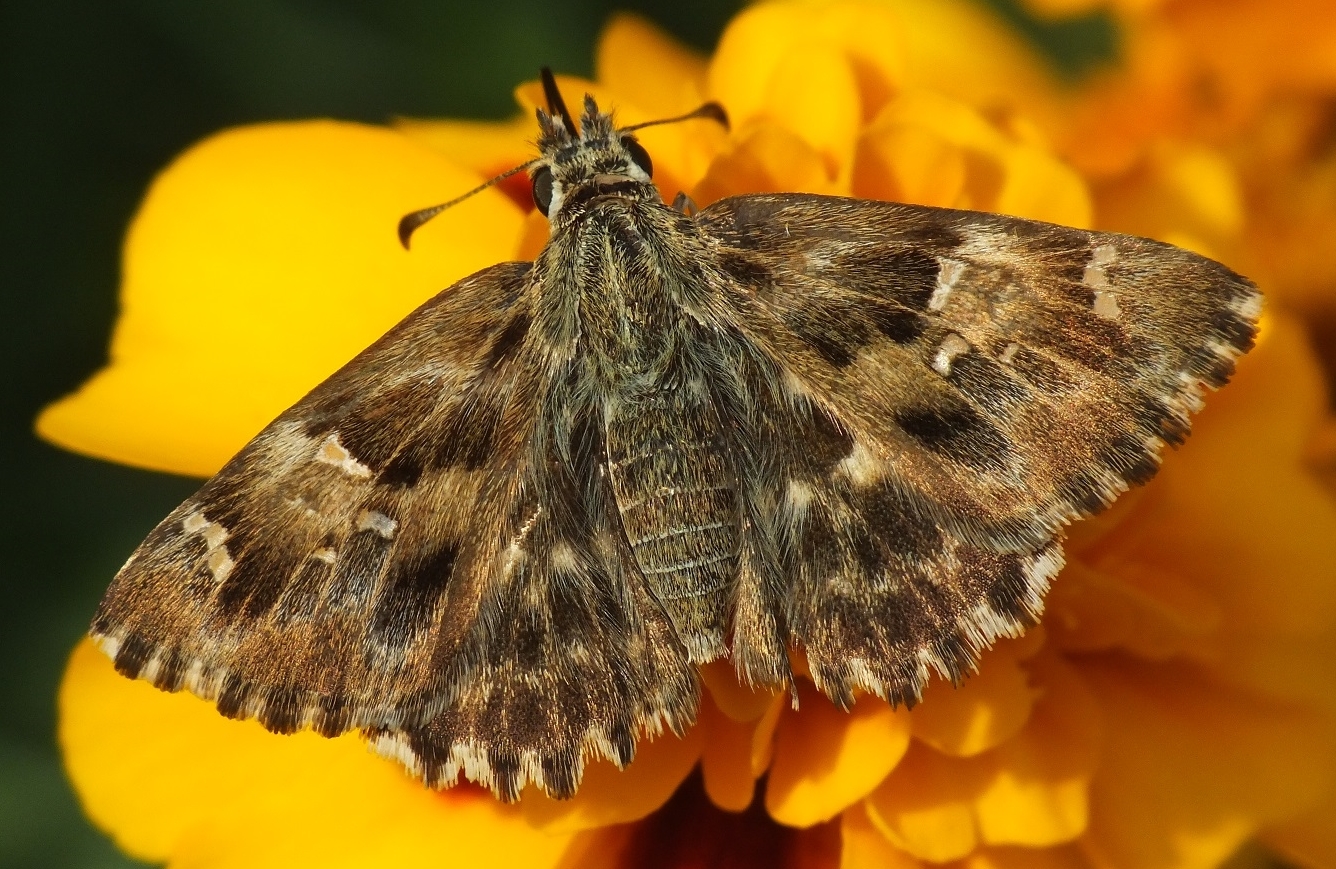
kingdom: Animalia
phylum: Arthropoda
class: Insecta
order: Lepidoptera
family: Hesperiidae
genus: Carcharodus
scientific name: Carcharodus alceae
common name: Mallow skipper
